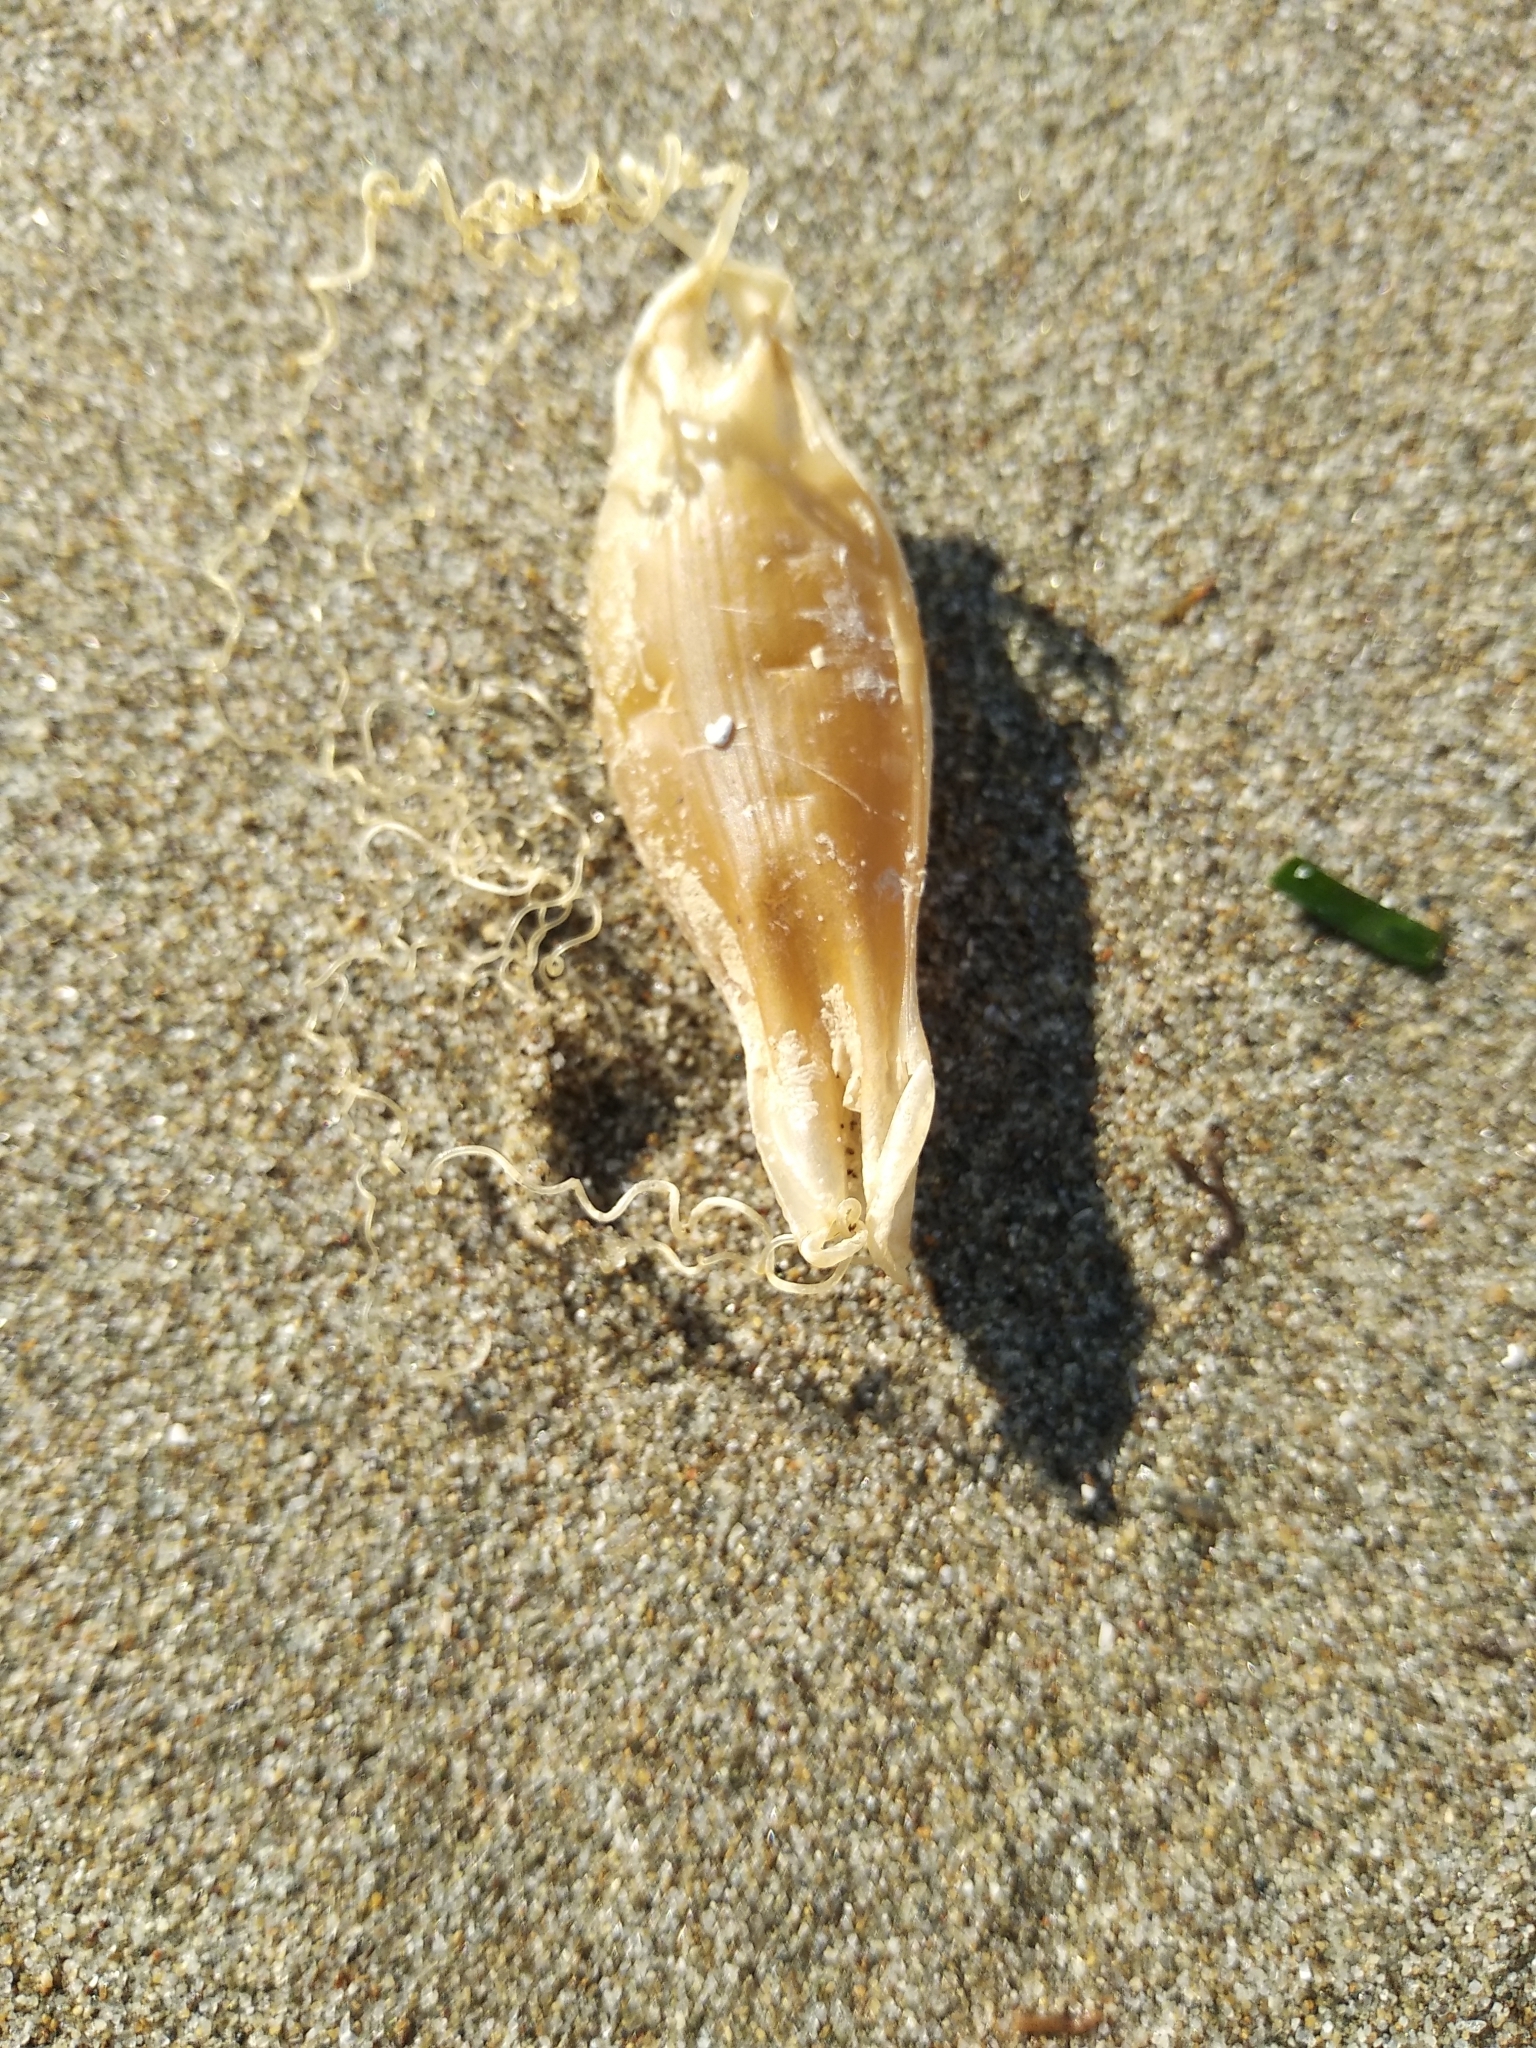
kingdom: Animalia
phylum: Chordata
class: Elasmobranchii
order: Carcharhiniformes
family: Scyliorhinidae
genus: Scyliorhinus
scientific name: Scyliorhinus canicula
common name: Lesser spotted dogfish
